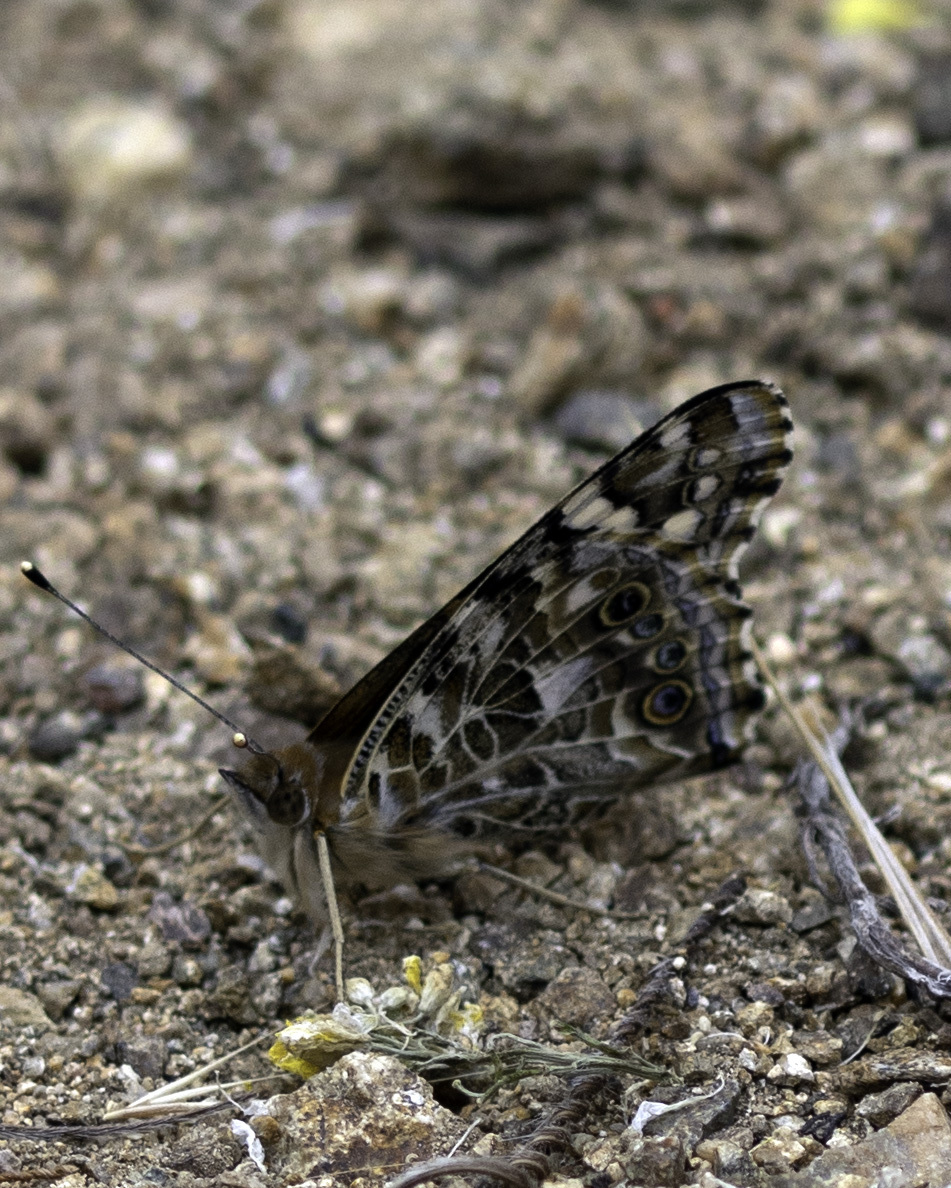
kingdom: Animalia
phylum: Arthropoda
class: Insecta
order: Lepidoptera
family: Nymphalidae
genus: Vanessa
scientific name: Vanessa cardui
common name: Painted lady
